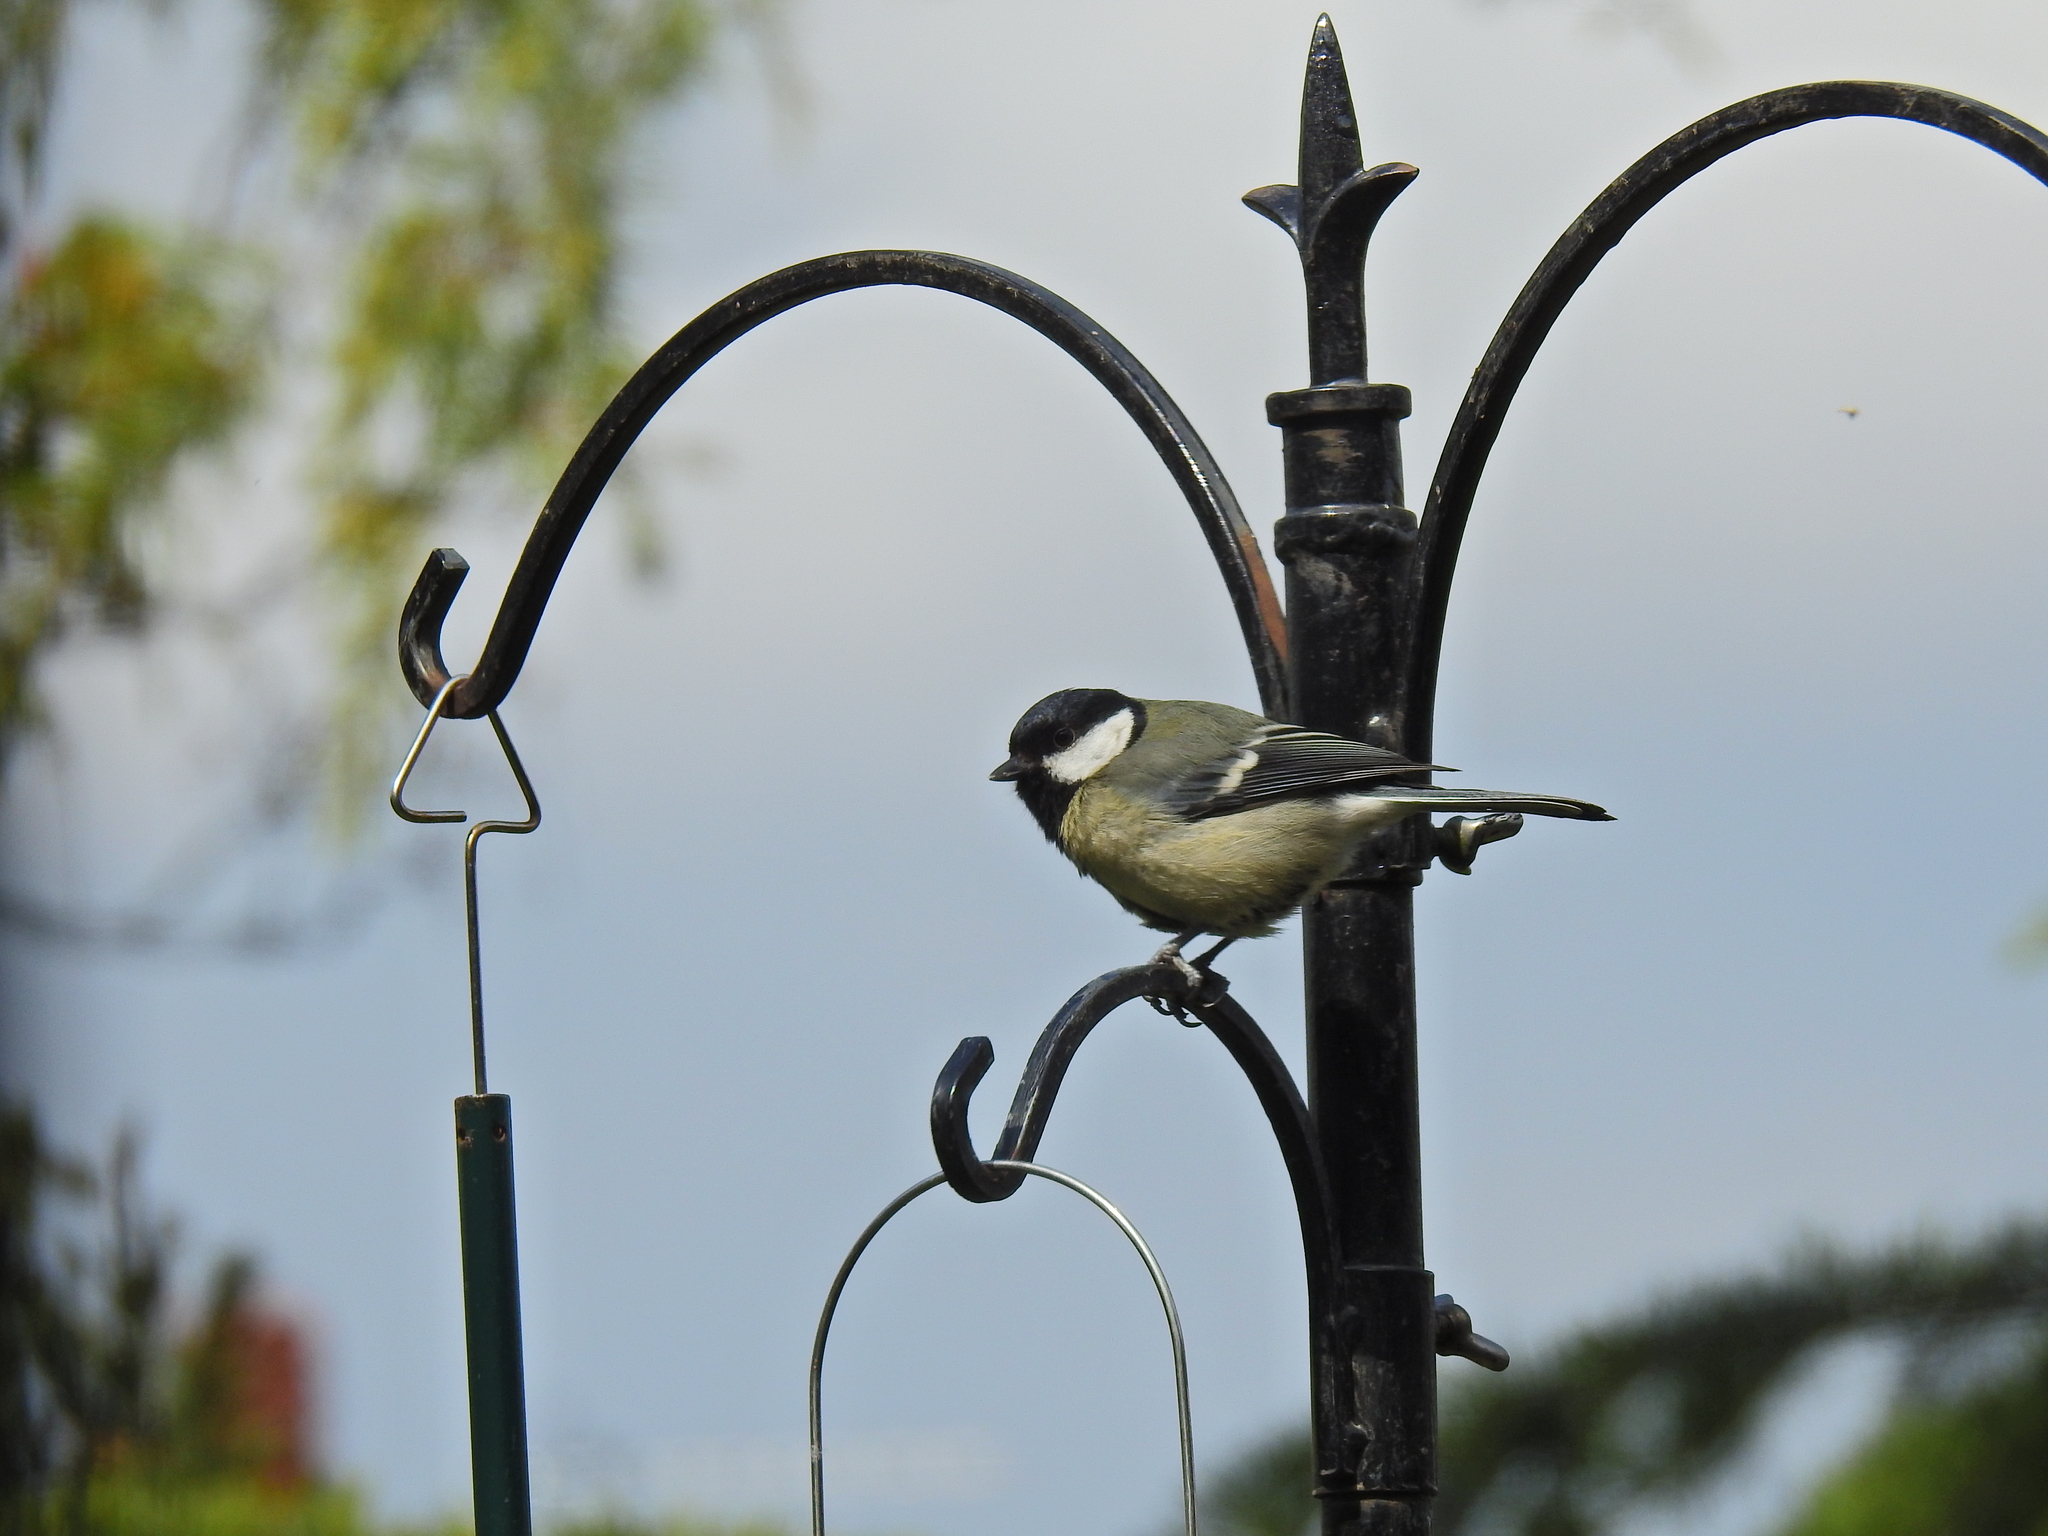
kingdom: Animalia
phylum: Chordata
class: Aves
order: Passeriformes
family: Paridae
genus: Parus
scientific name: Parus major
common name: Great tit
